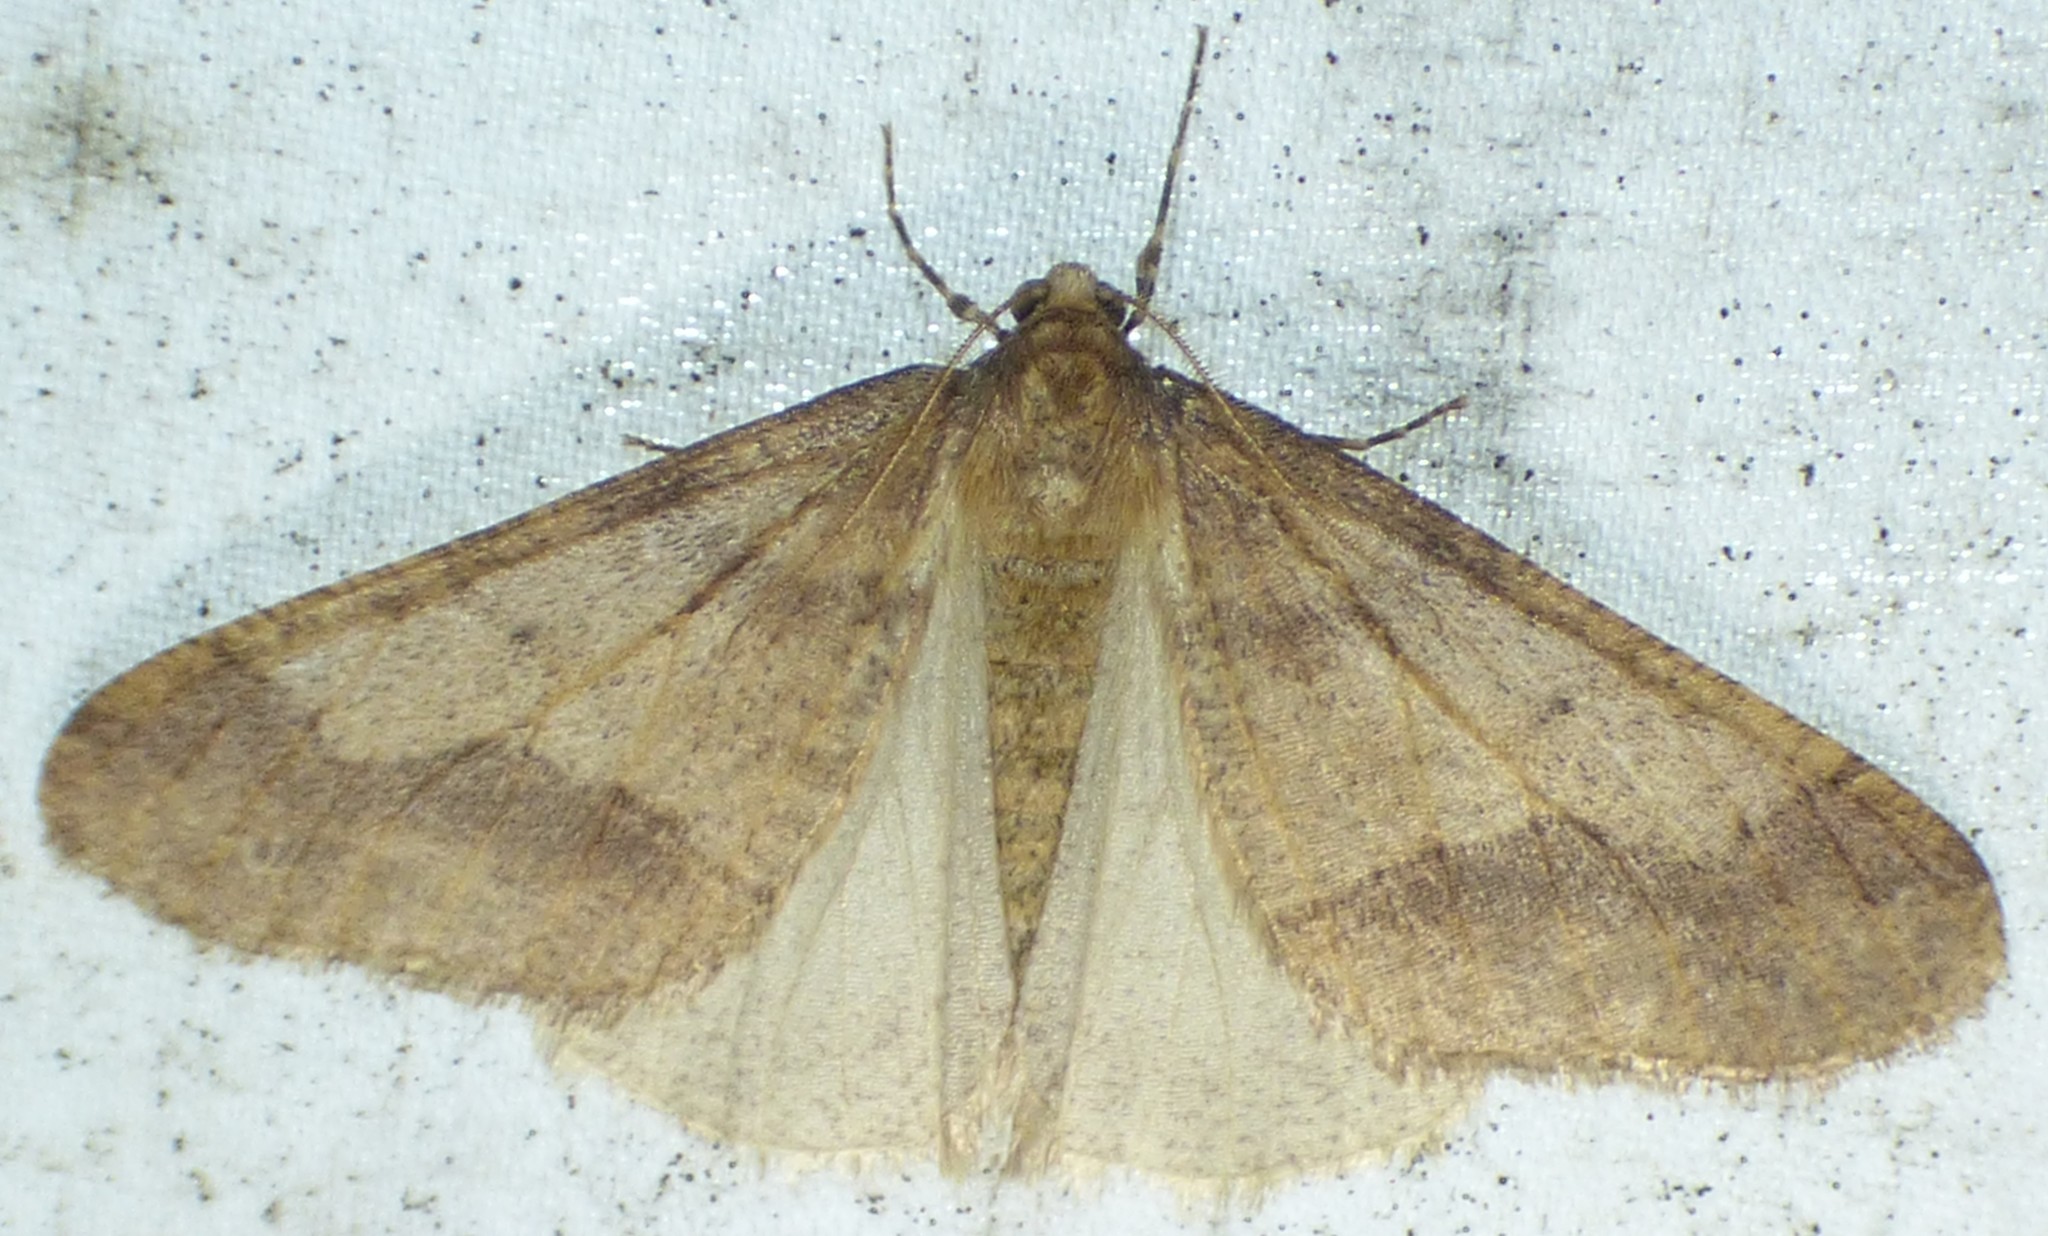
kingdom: Animalia
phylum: Arthropoda
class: Insecta
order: Lepidoptera
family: Geometridae
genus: Erannis
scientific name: Erannis tiliaria
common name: Linden looper
